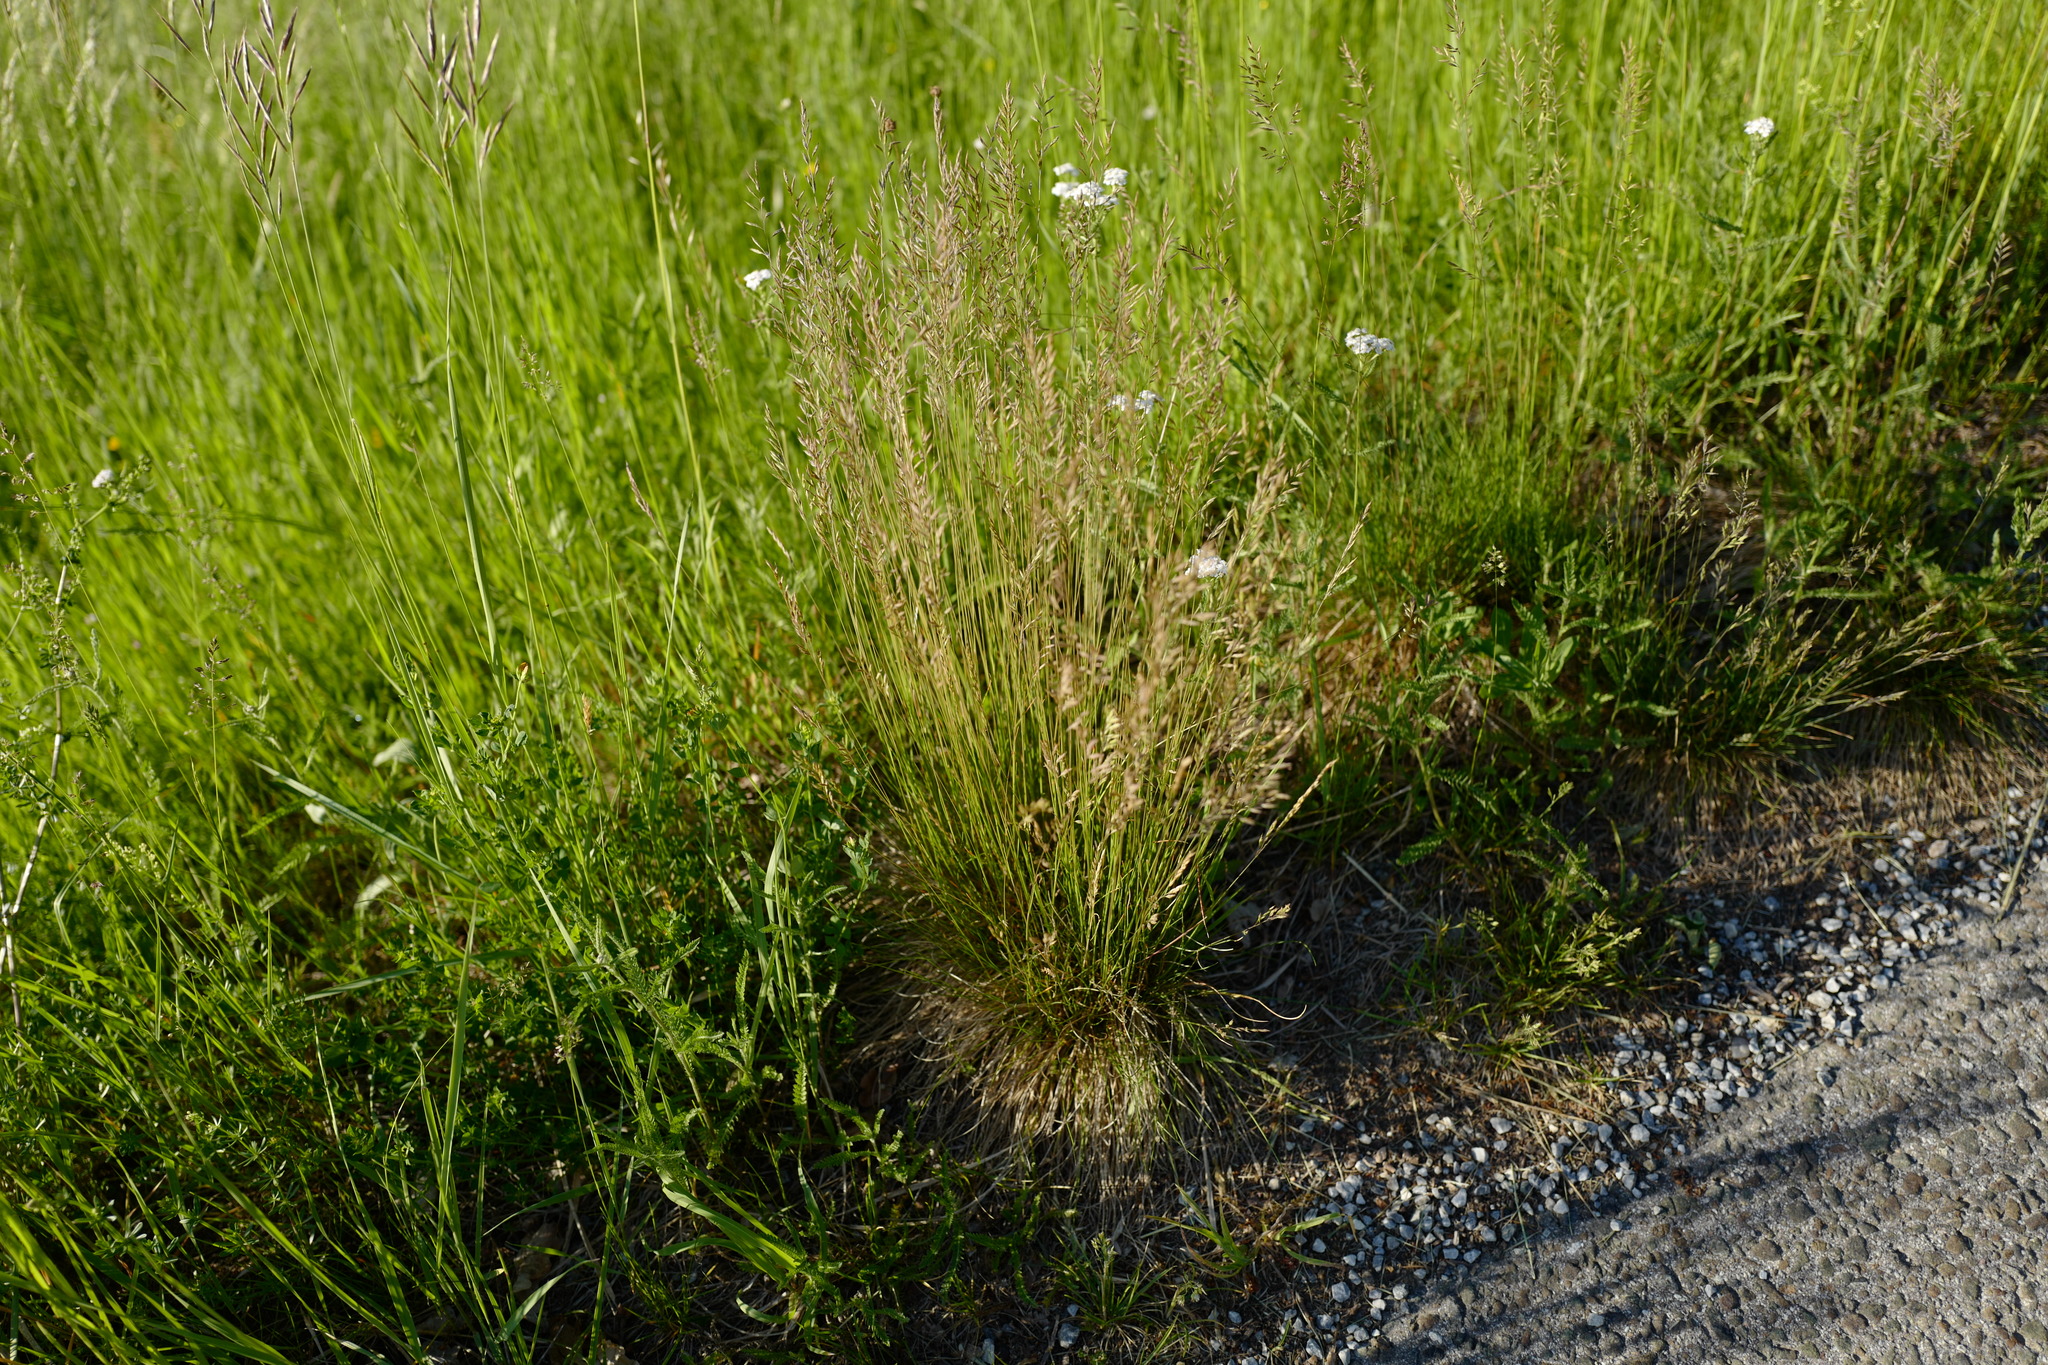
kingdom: Plantae
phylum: Tracheophyta
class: Liliopsida
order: Poales
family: Poaceae
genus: Festuca
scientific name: Festuca heterophylla
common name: Various-leaved fescue
